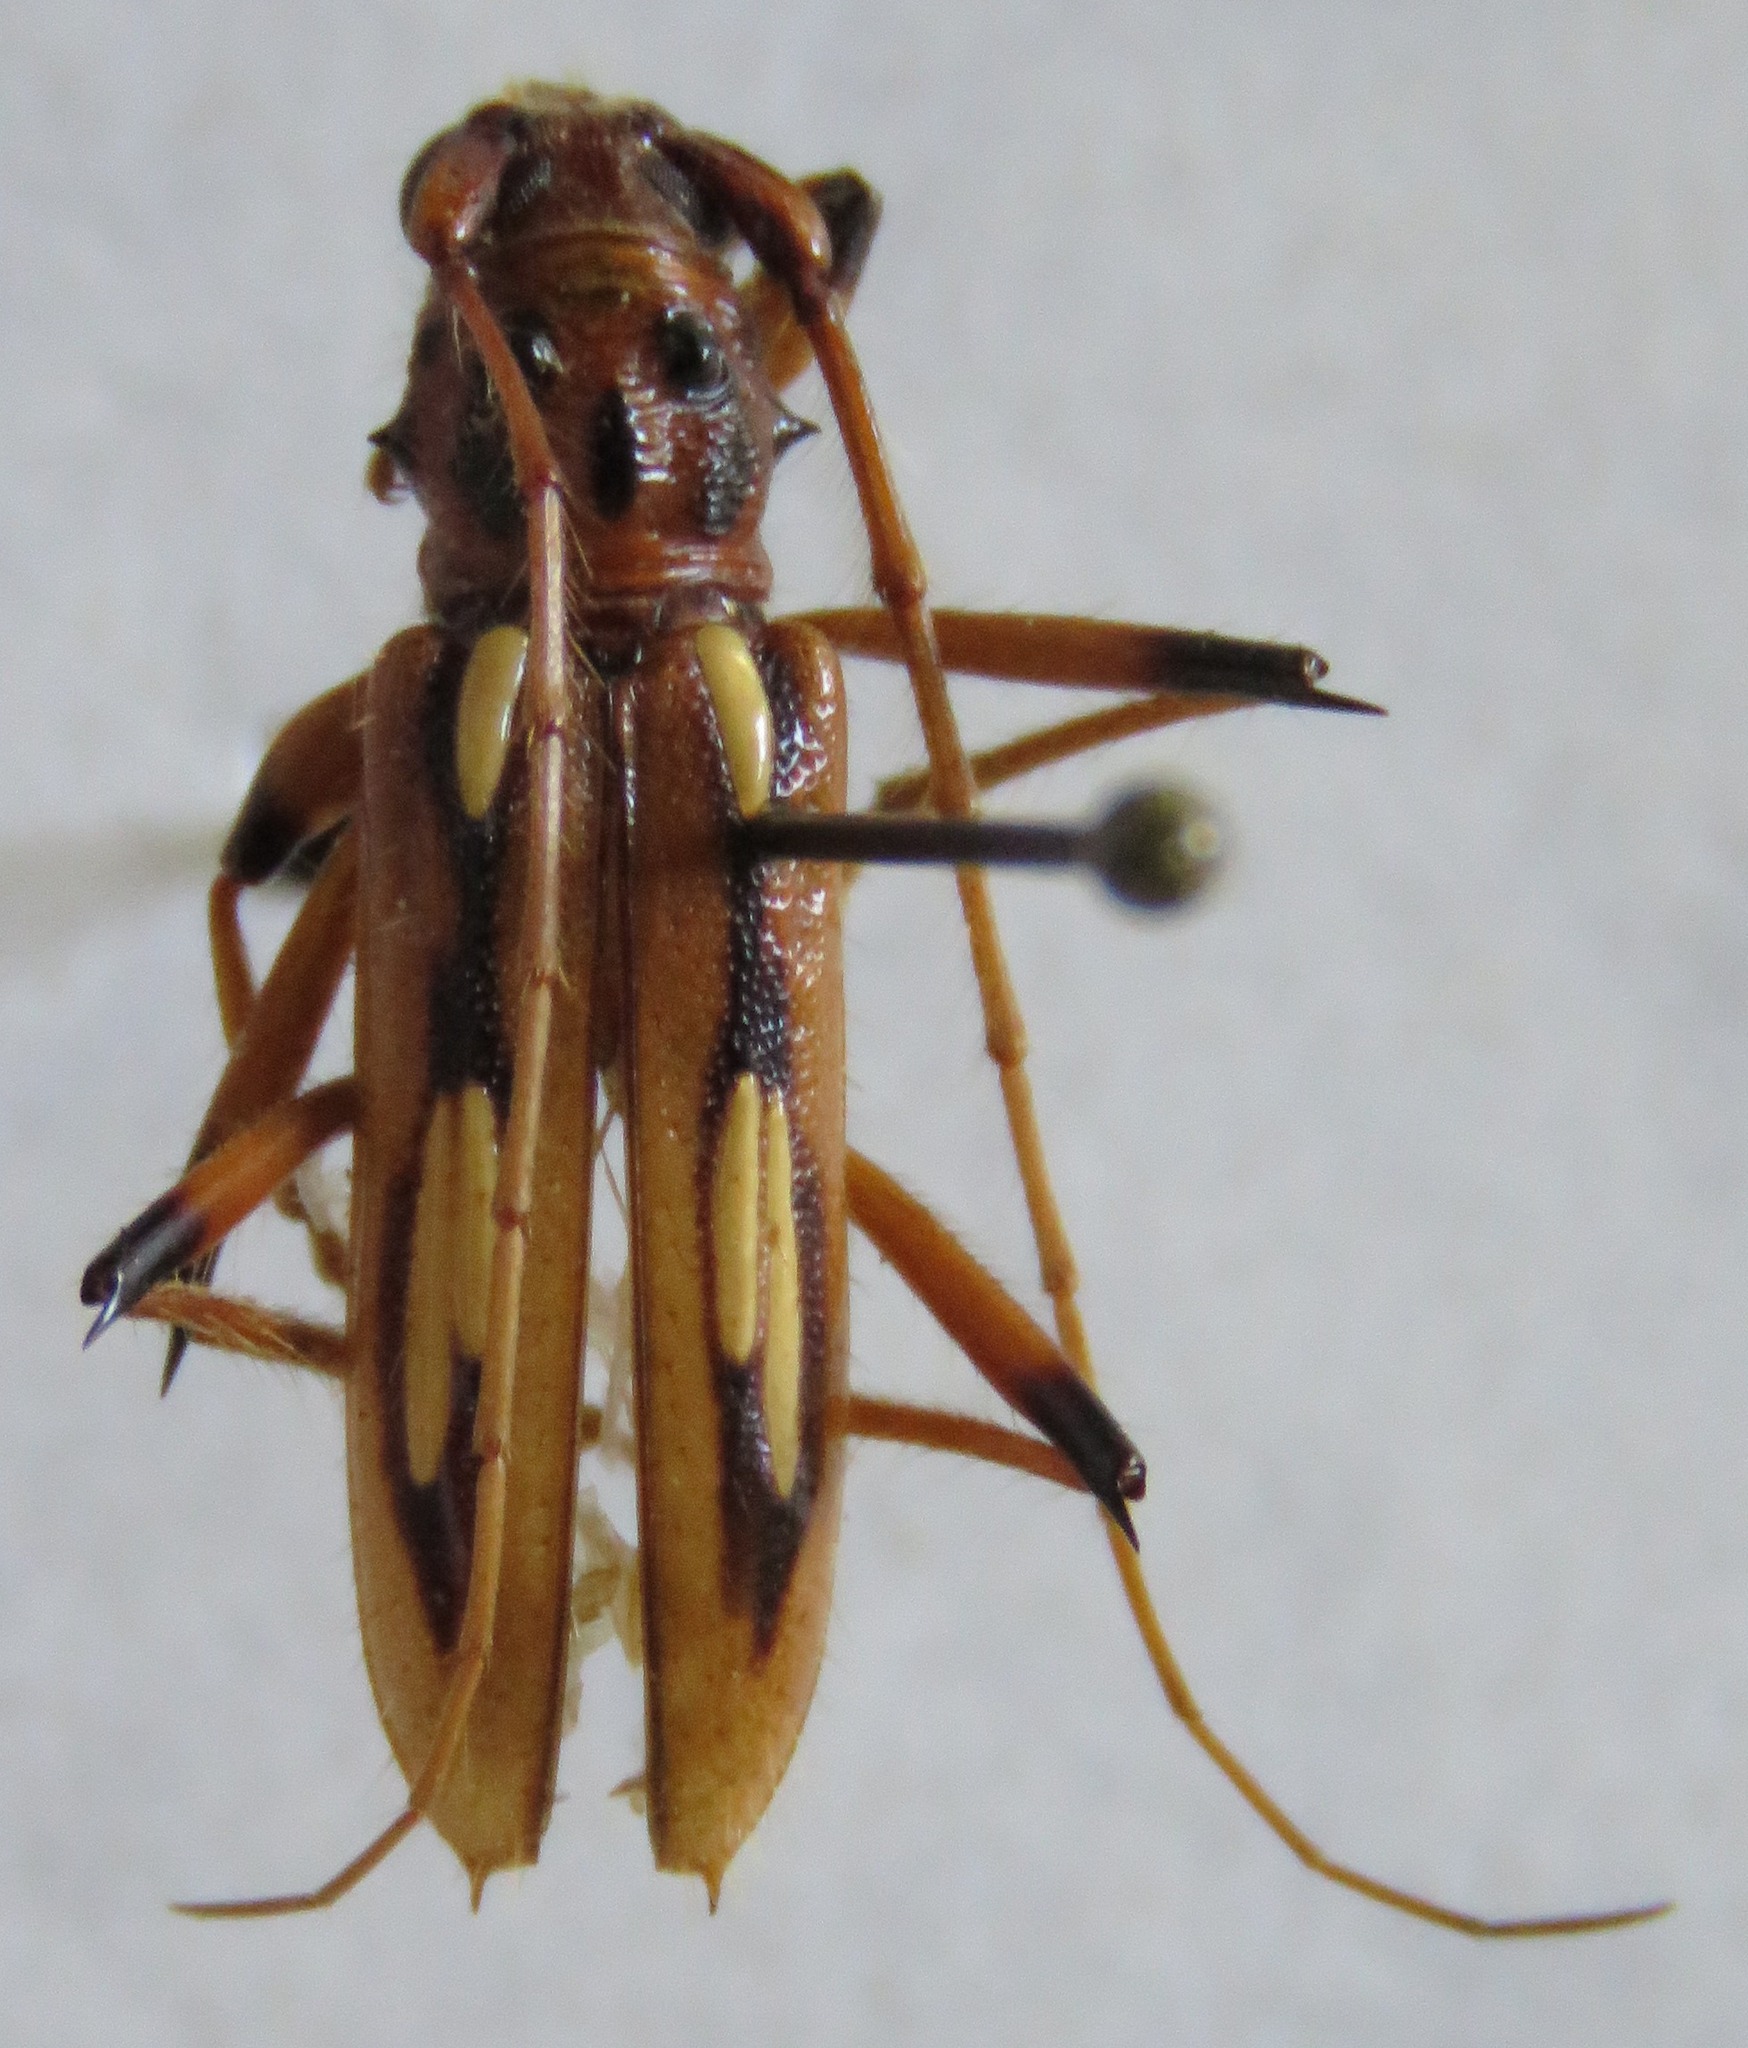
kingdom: Animalia
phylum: Arthropoda
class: Insecta
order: Coleoptera
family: Cerambycidae
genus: Eburodacrys
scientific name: Eburodacrys sticticollis
